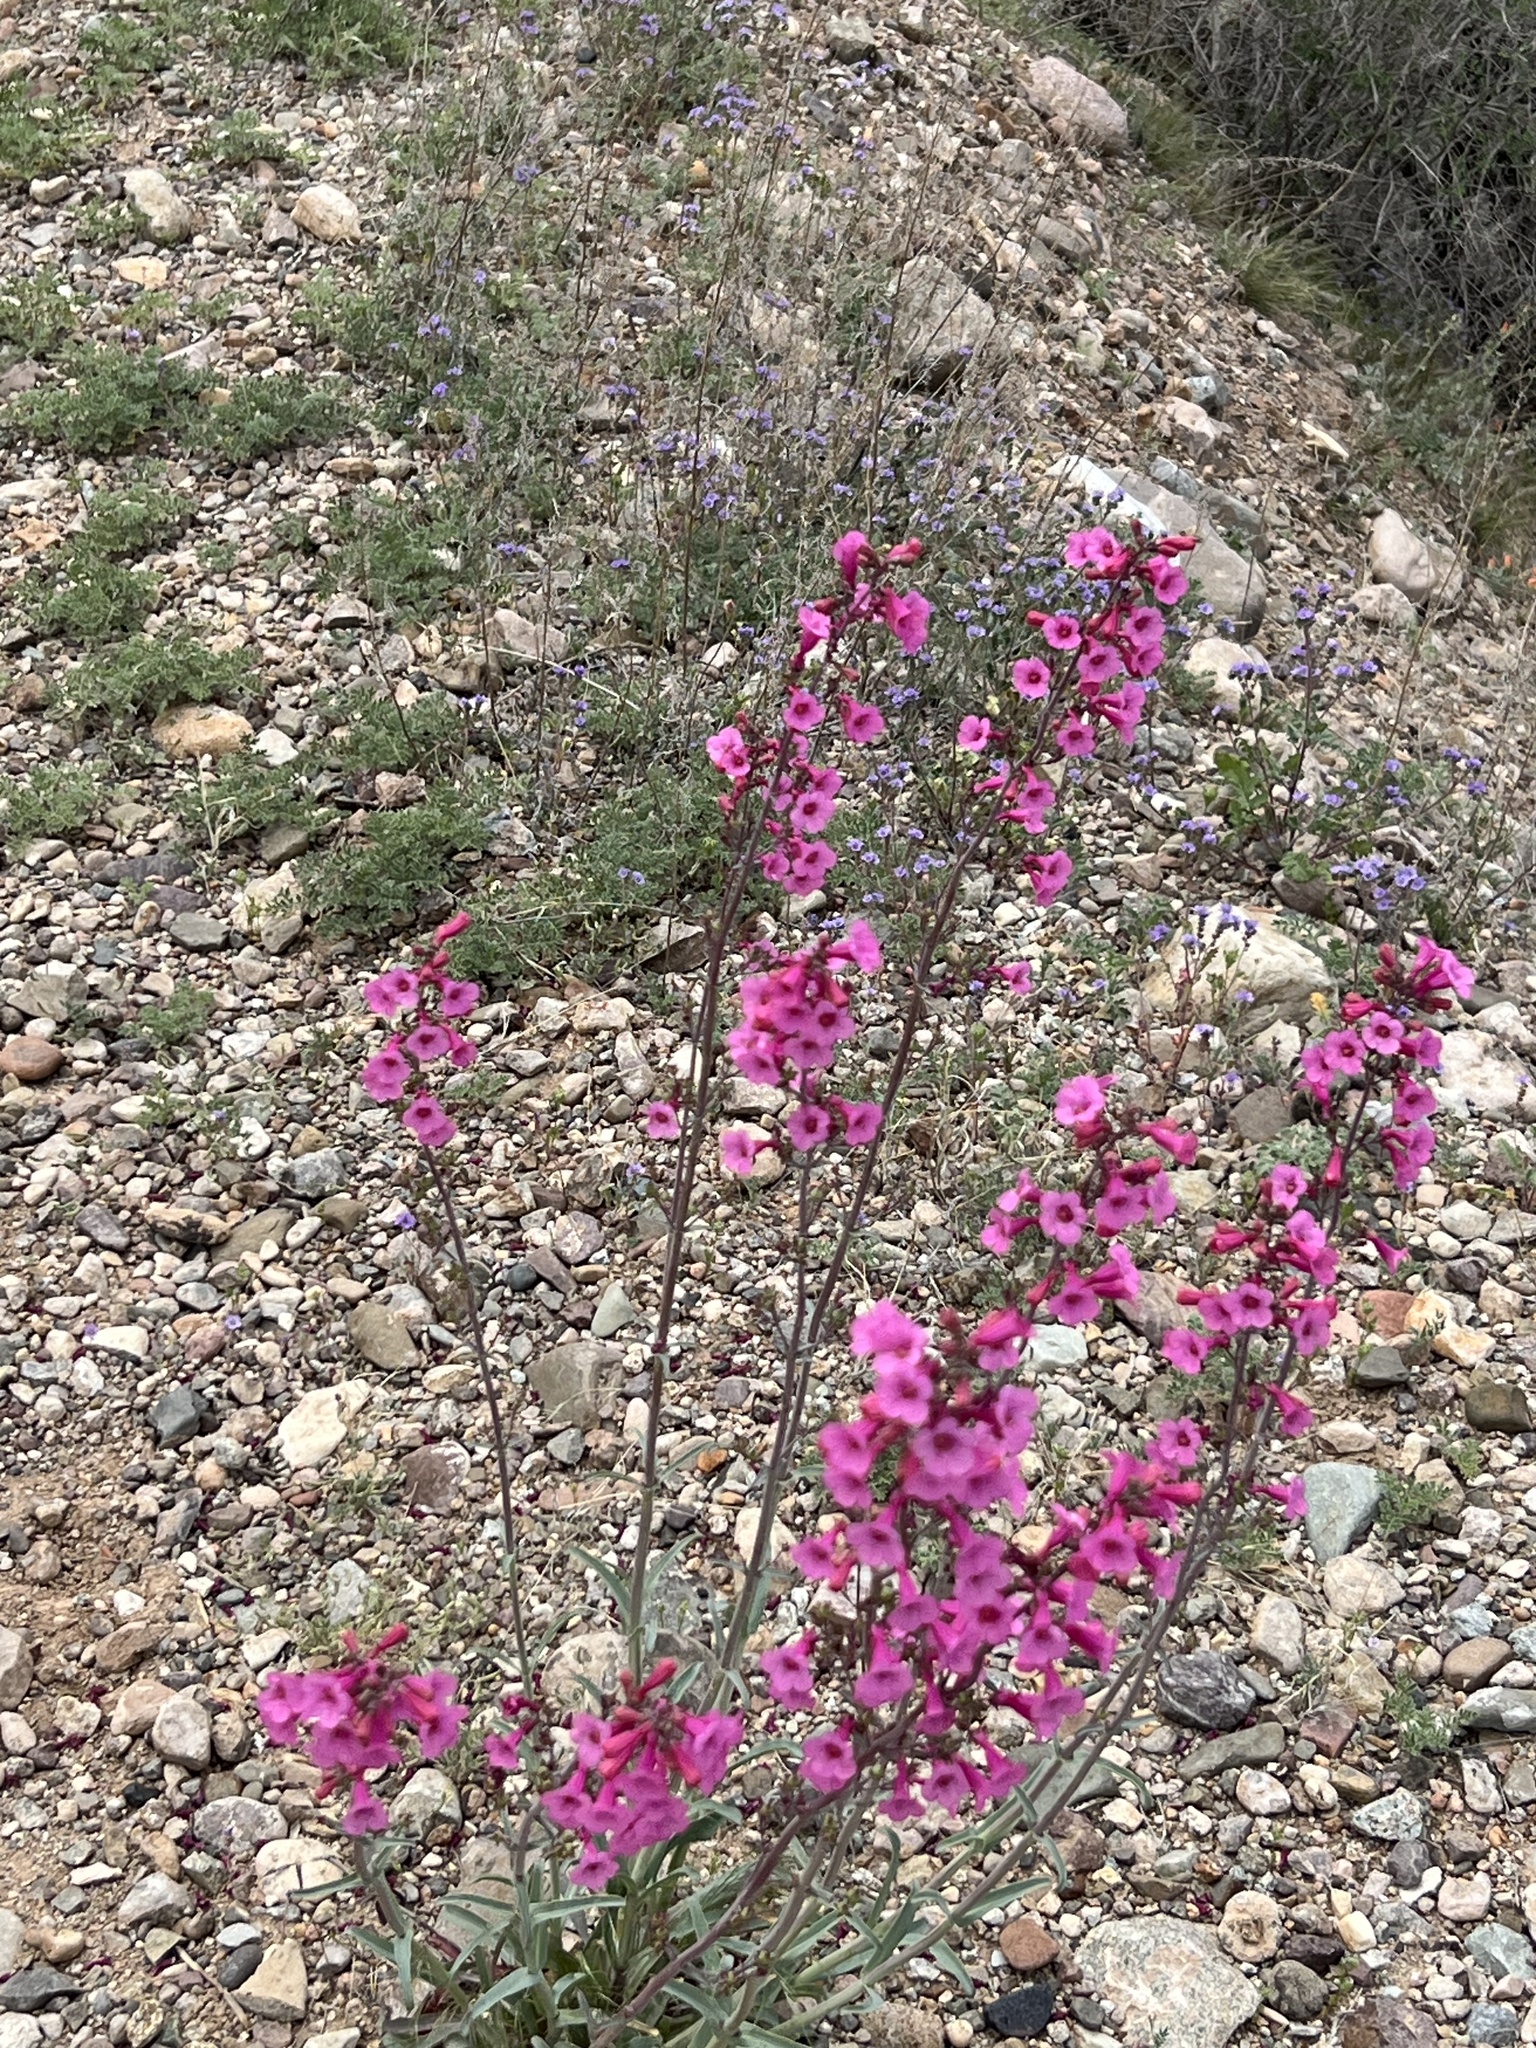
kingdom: Plantae
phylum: Tracheophyta
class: Magnoliopsida
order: Lamiales
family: Plantaginaceae
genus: Penstemon
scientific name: Penstemon parryi
